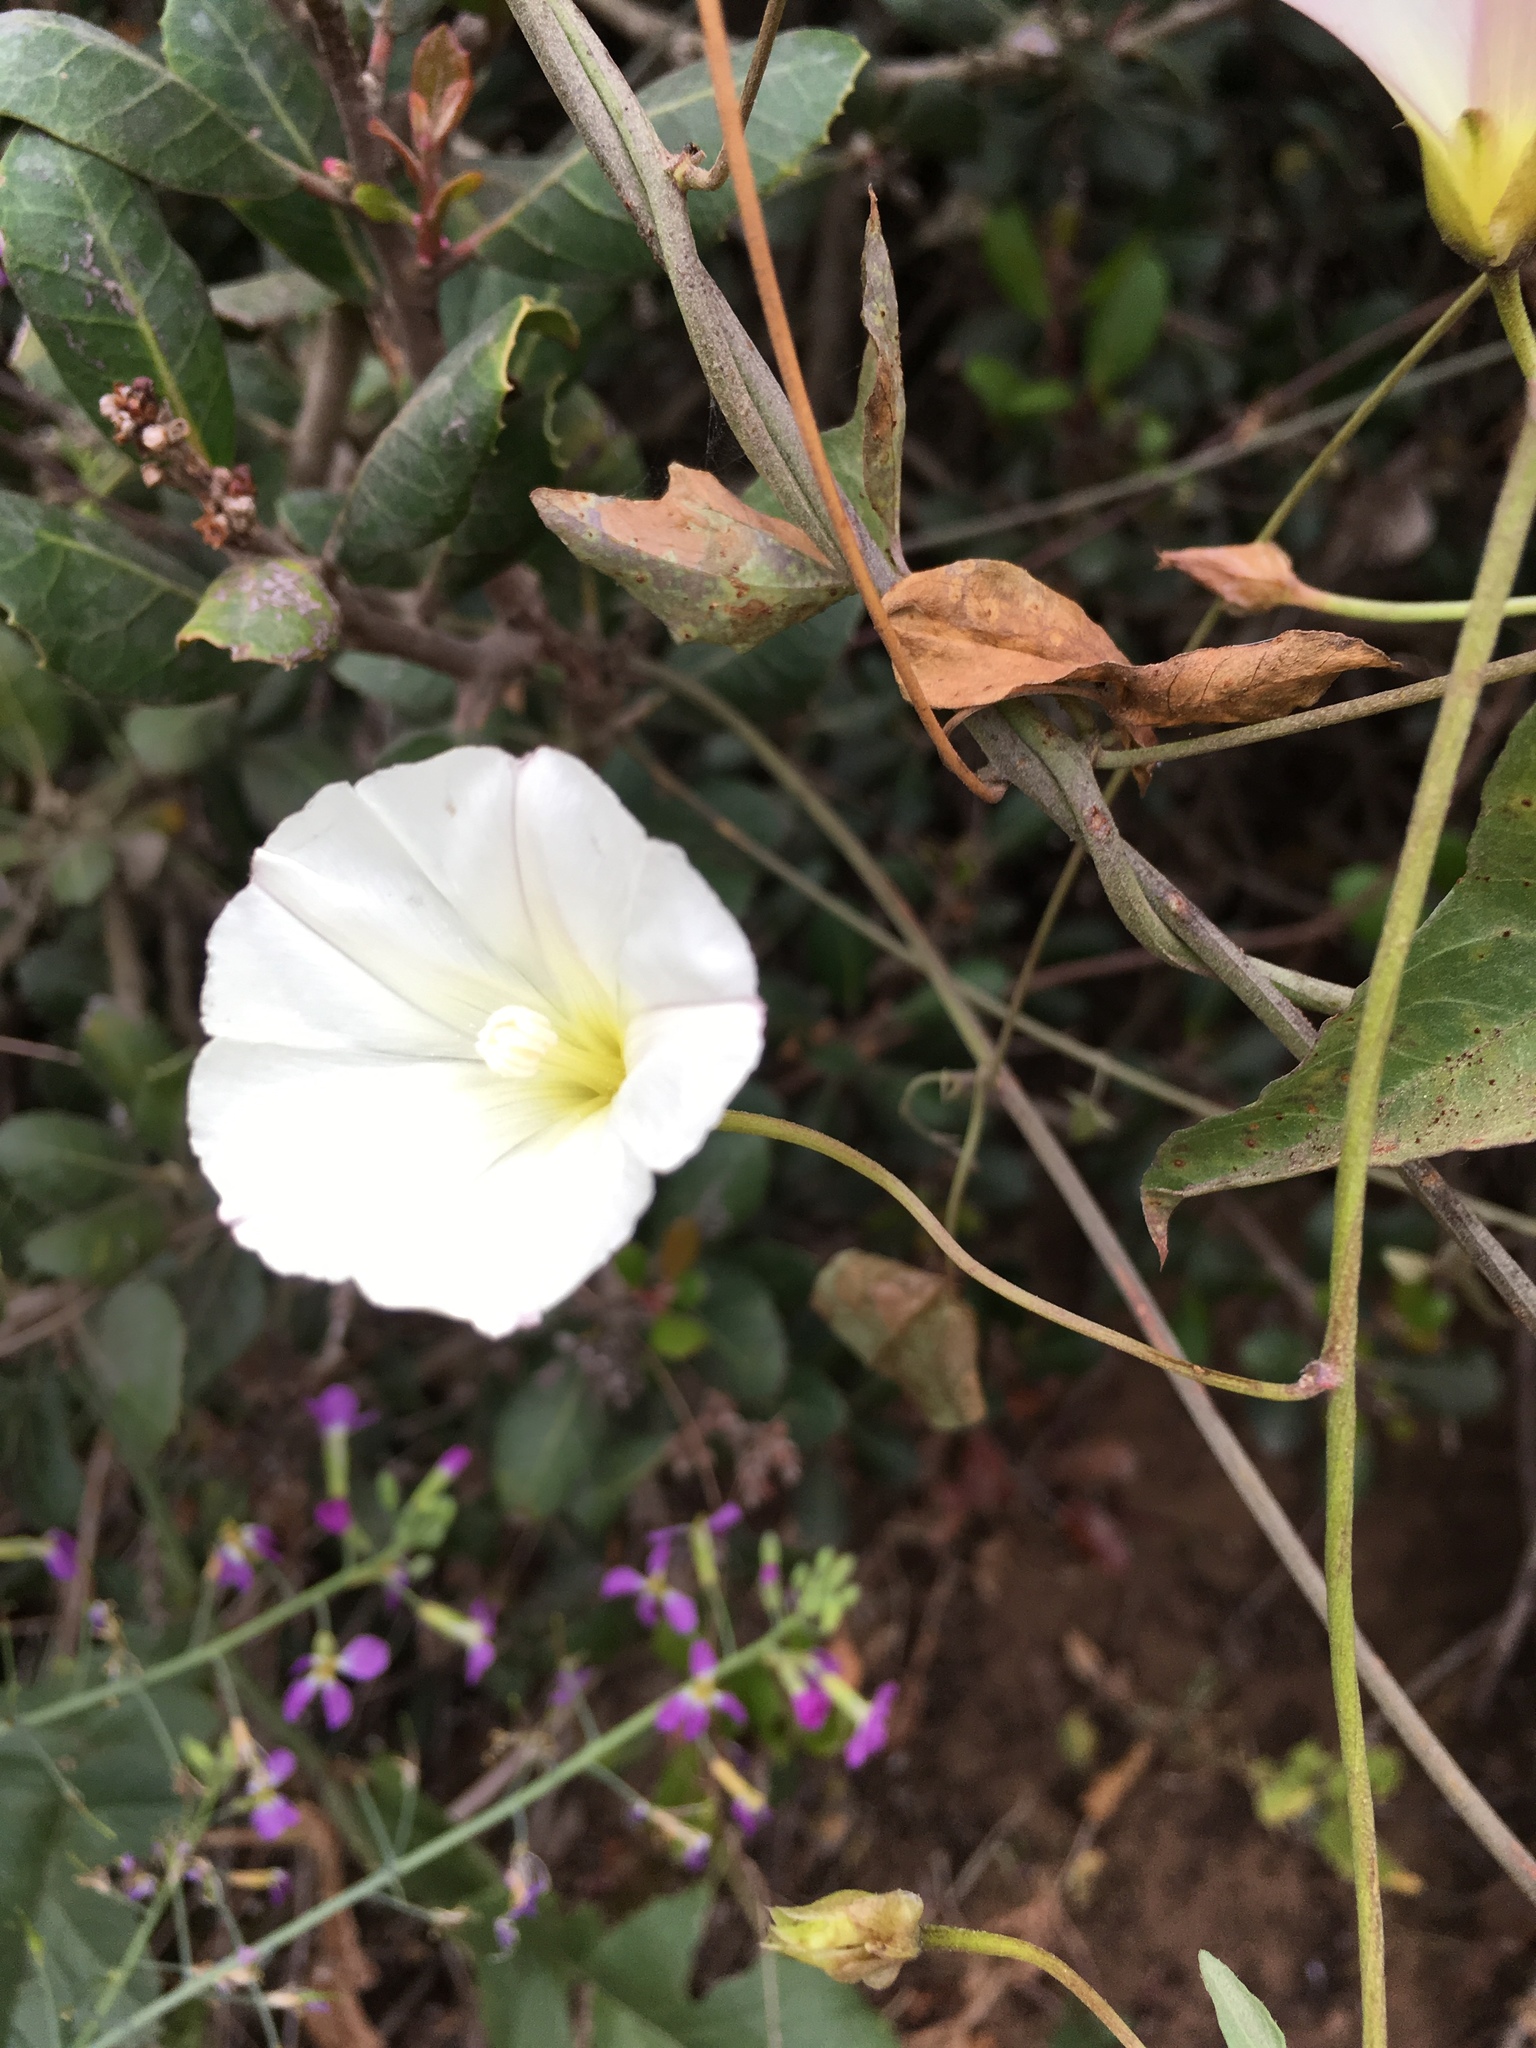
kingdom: Plantae
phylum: Tracheophyta
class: Magnoliopsida
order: Solanales
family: Convolvulaceae
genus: Calystegia
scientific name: Calystegia macrostegia
